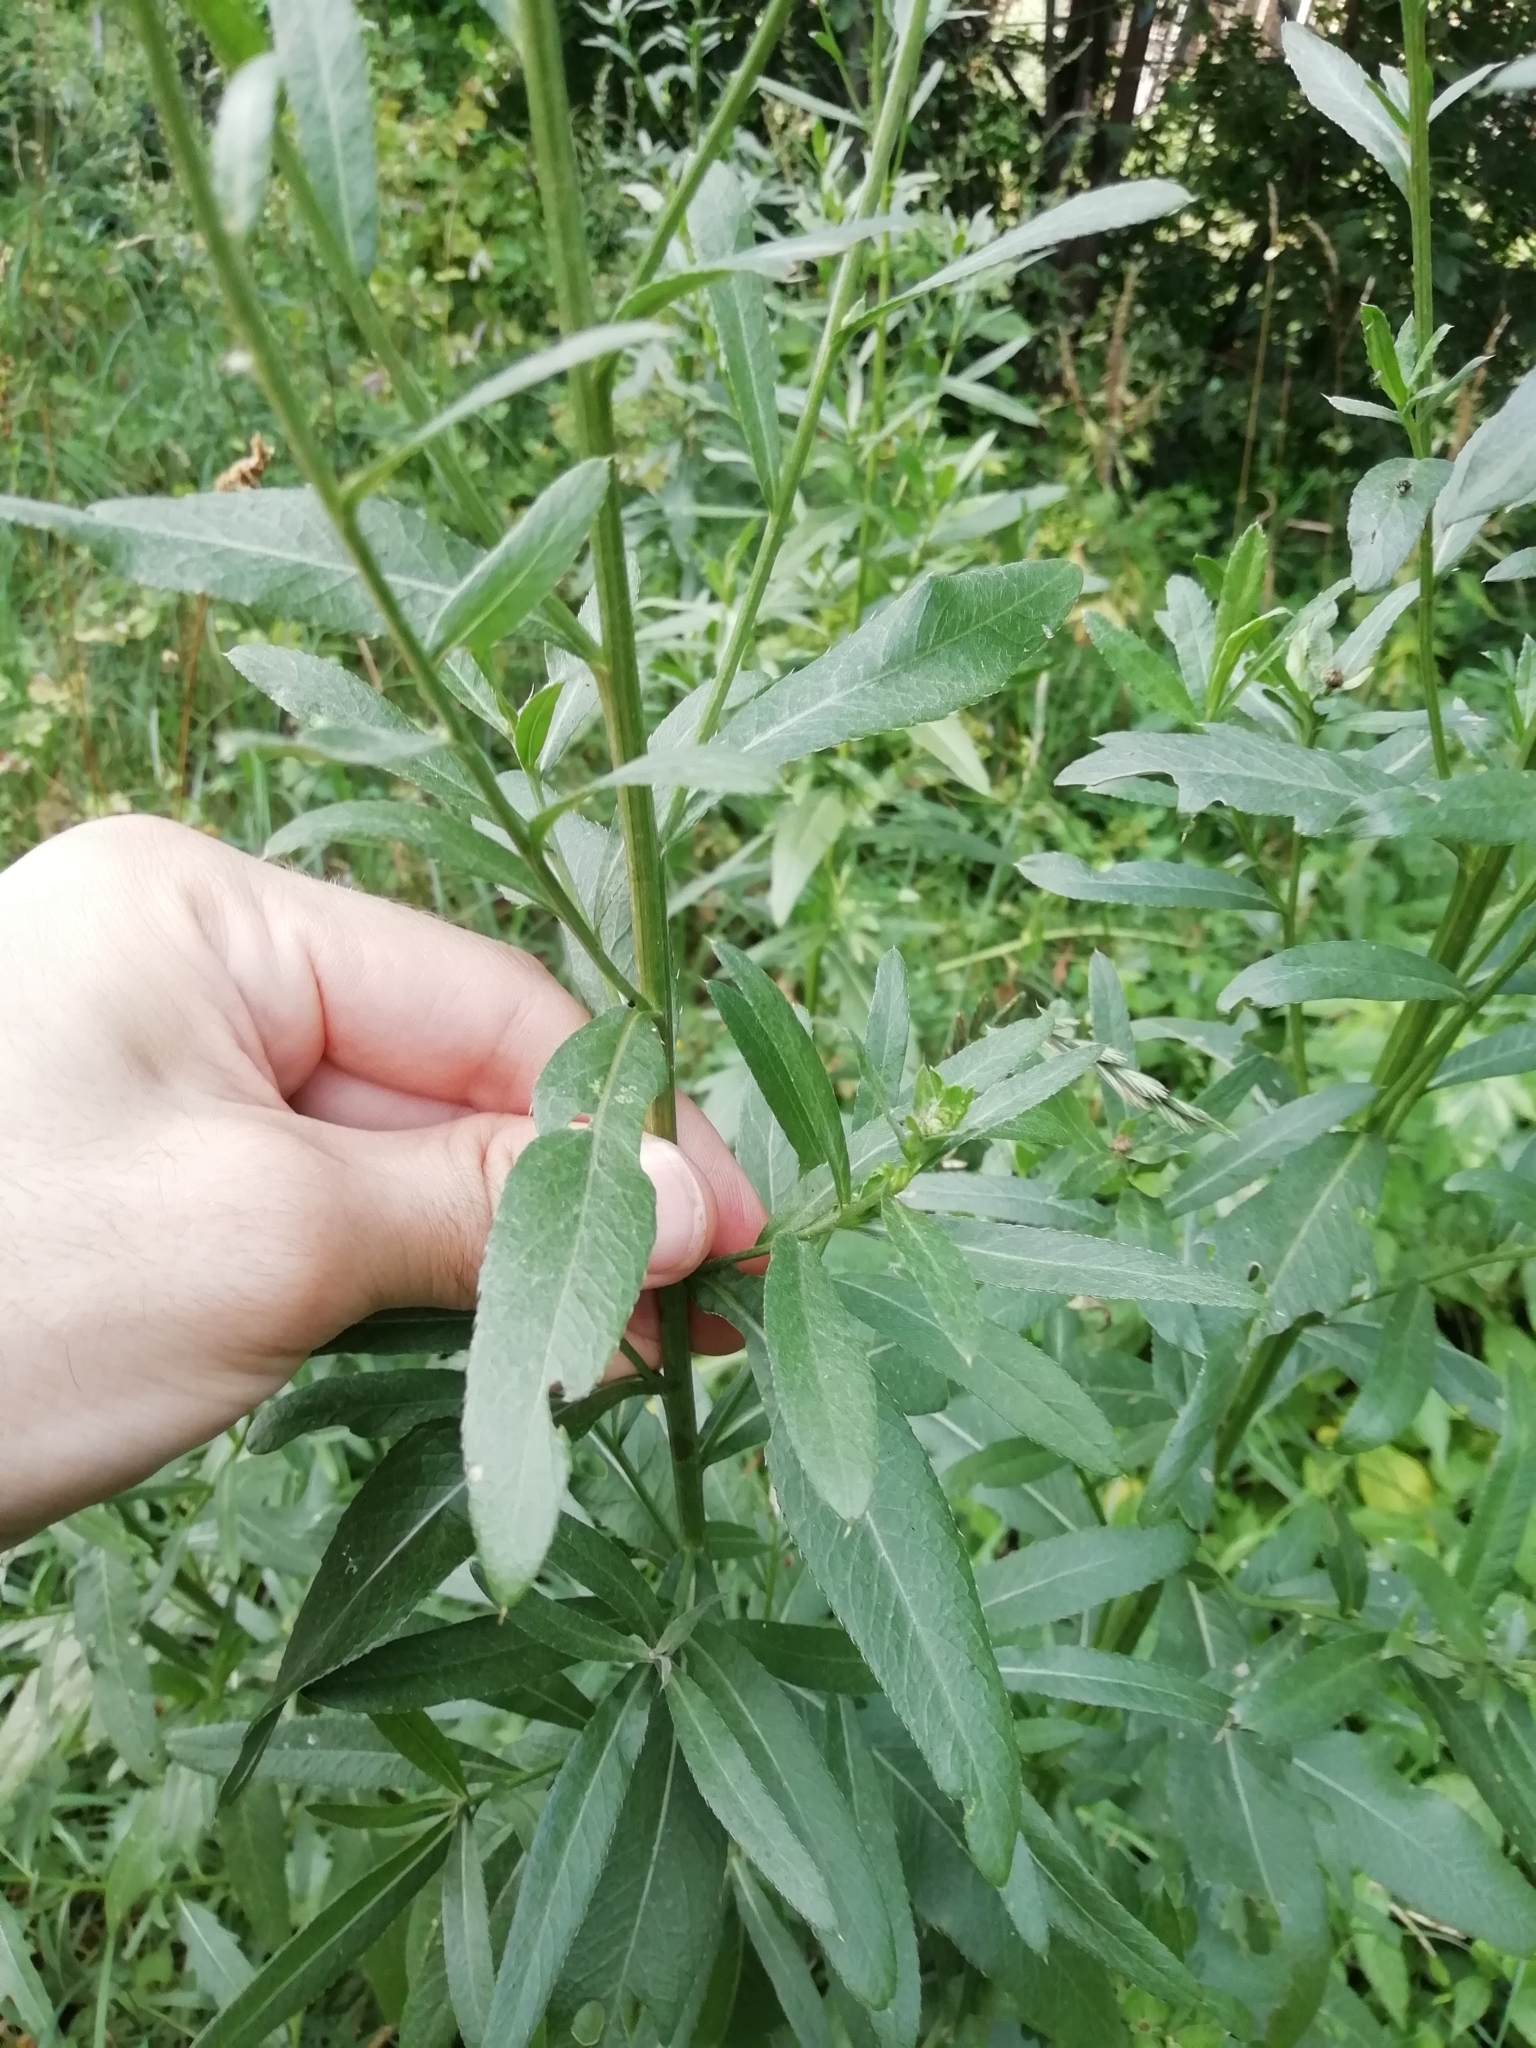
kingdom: Plantae
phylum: Tracheophyta
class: Magnoliopsida
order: Asterales
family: Asteraceae
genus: Cirsium
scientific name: Cirsium arvense
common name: Creeping thistle
